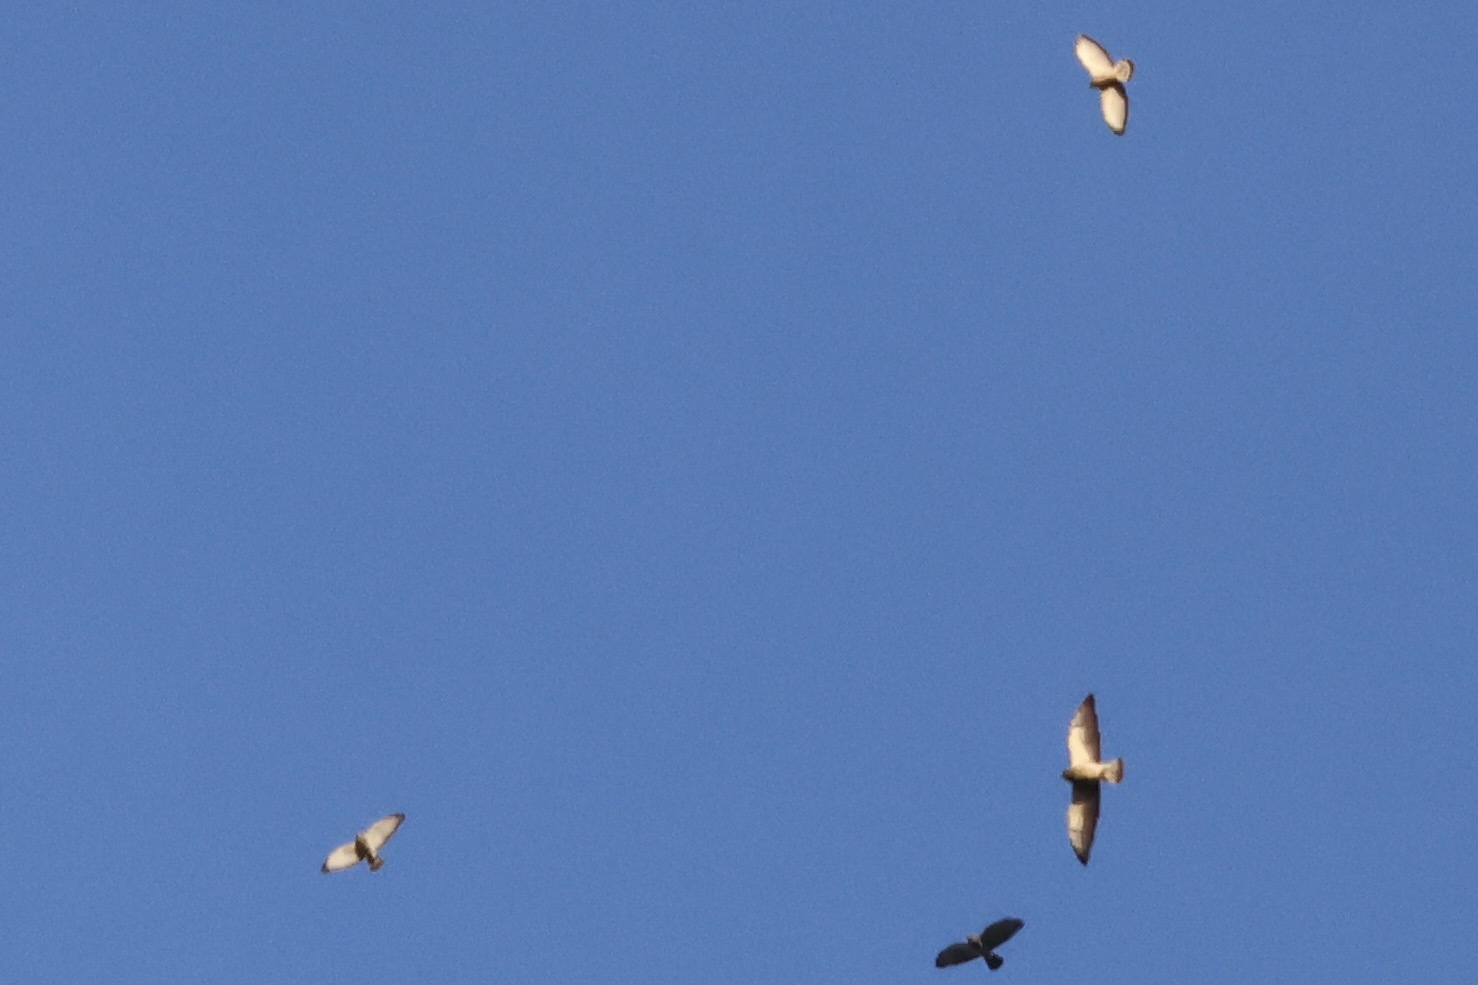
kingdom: Animalia
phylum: Chordata
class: Aves
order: Accipitriformes
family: Accipitridae
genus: Buteo
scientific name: Buteo platypterus
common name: Broad-winged hawk
